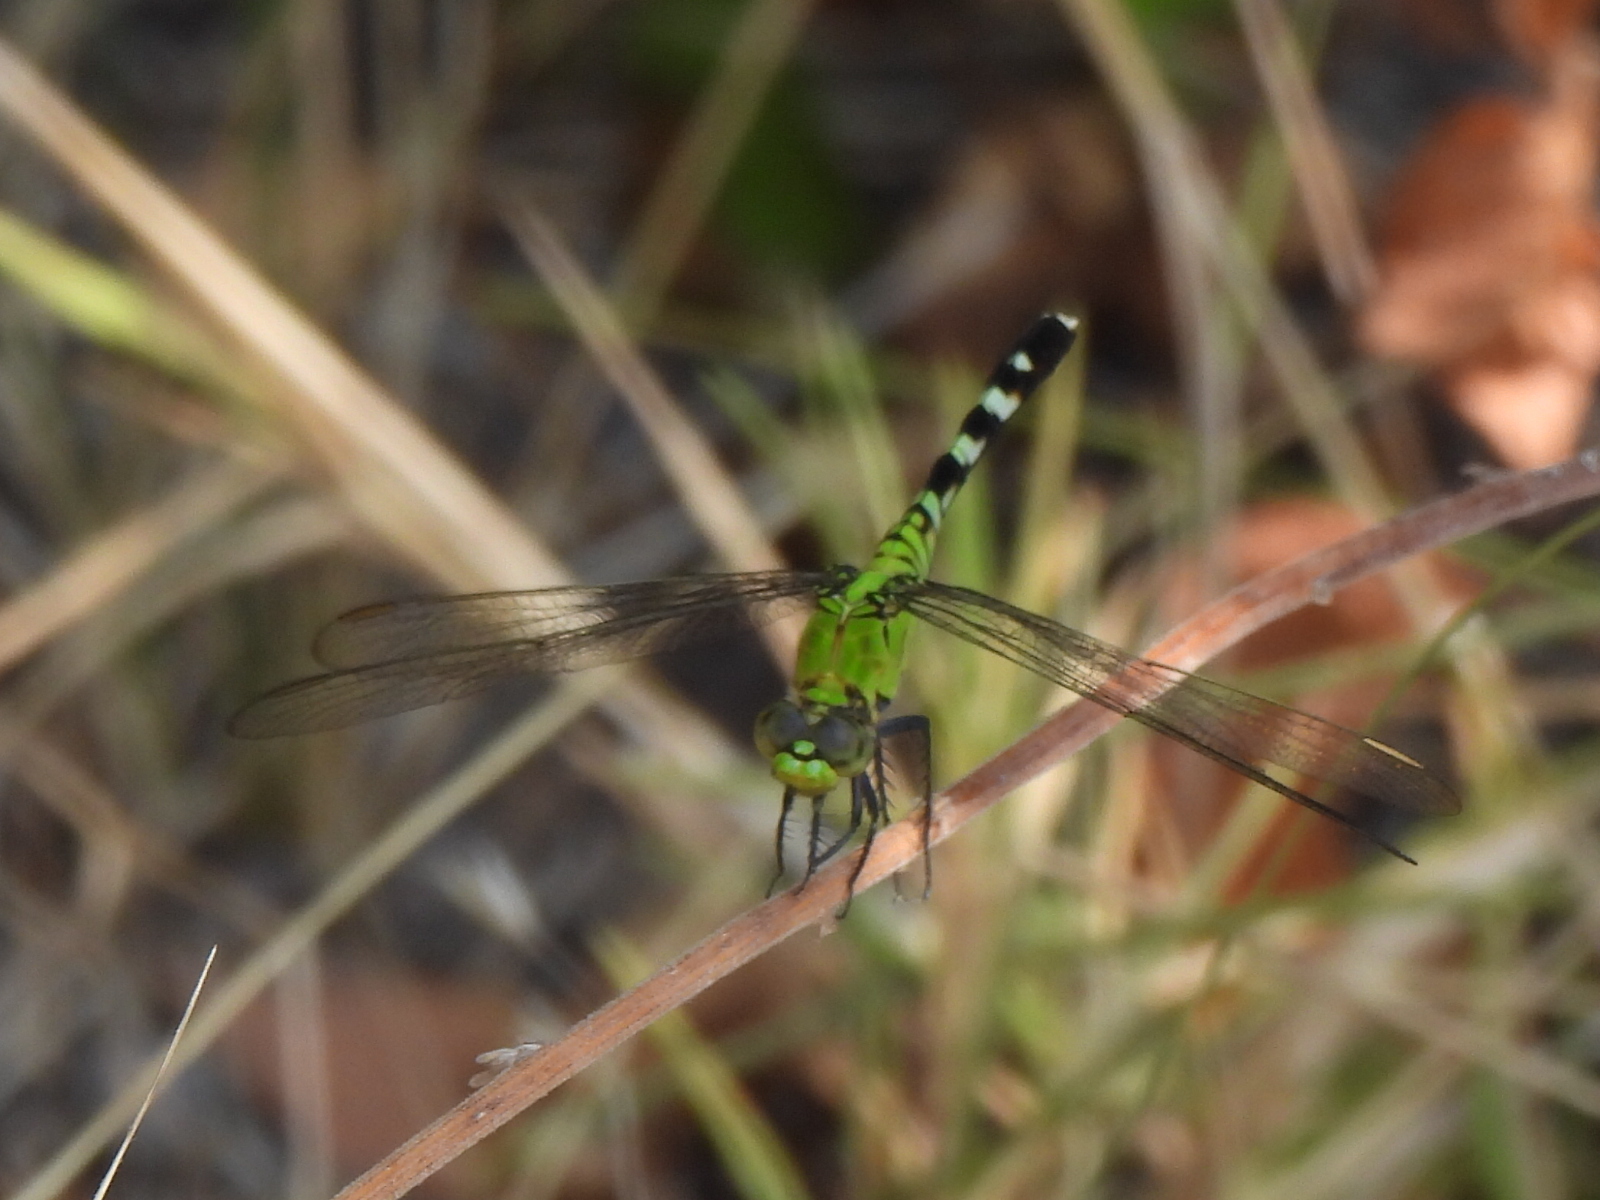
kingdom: Animalia
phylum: Arthropoda
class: Insecta
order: Odonata
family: Libellulidae
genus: Erythemis
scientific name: Erythemis simplicicollis
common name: Eastern pondhawk
